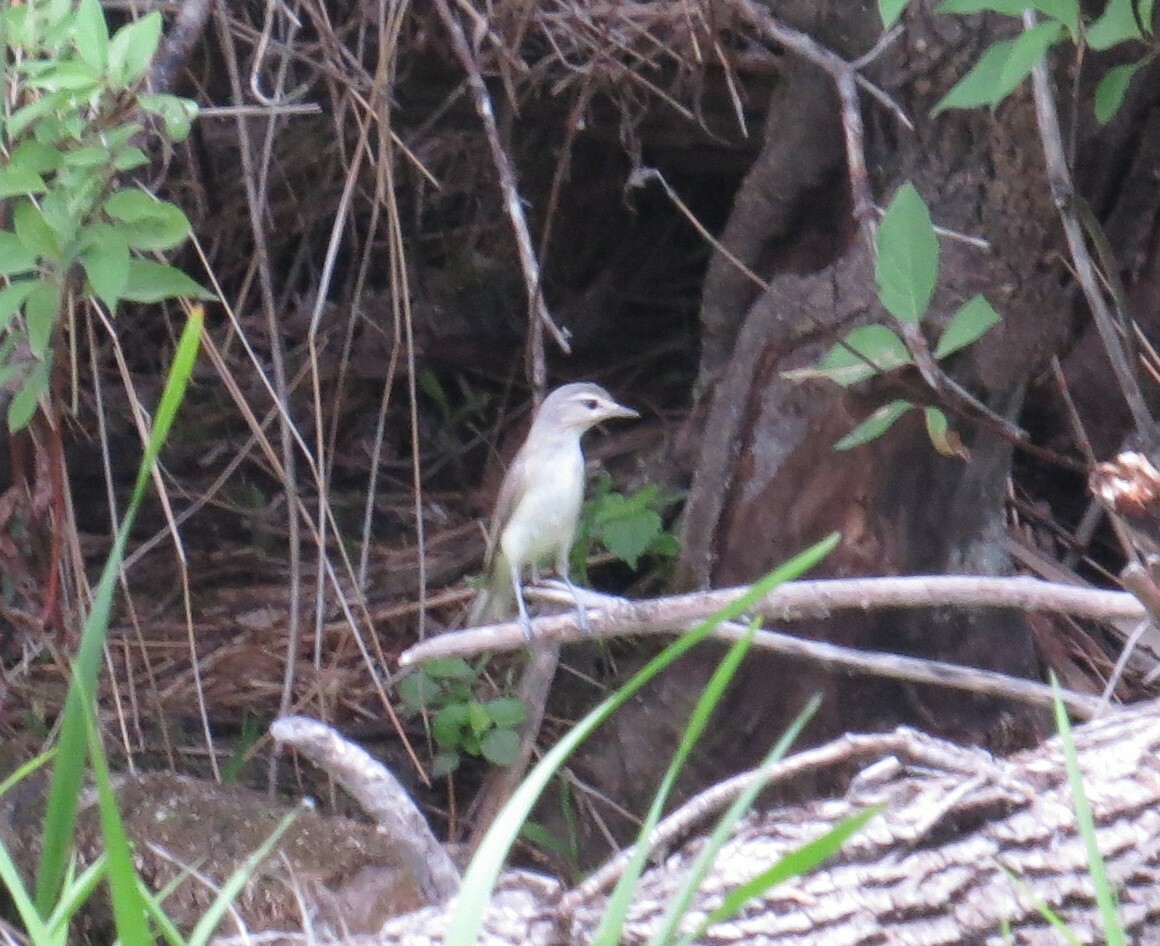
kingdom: Animalia
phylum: Chordata
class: Aves
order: Passeriformes
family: Vireonidae
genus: Vireo
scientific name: Vireo gilvus
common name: Warbling vireo
